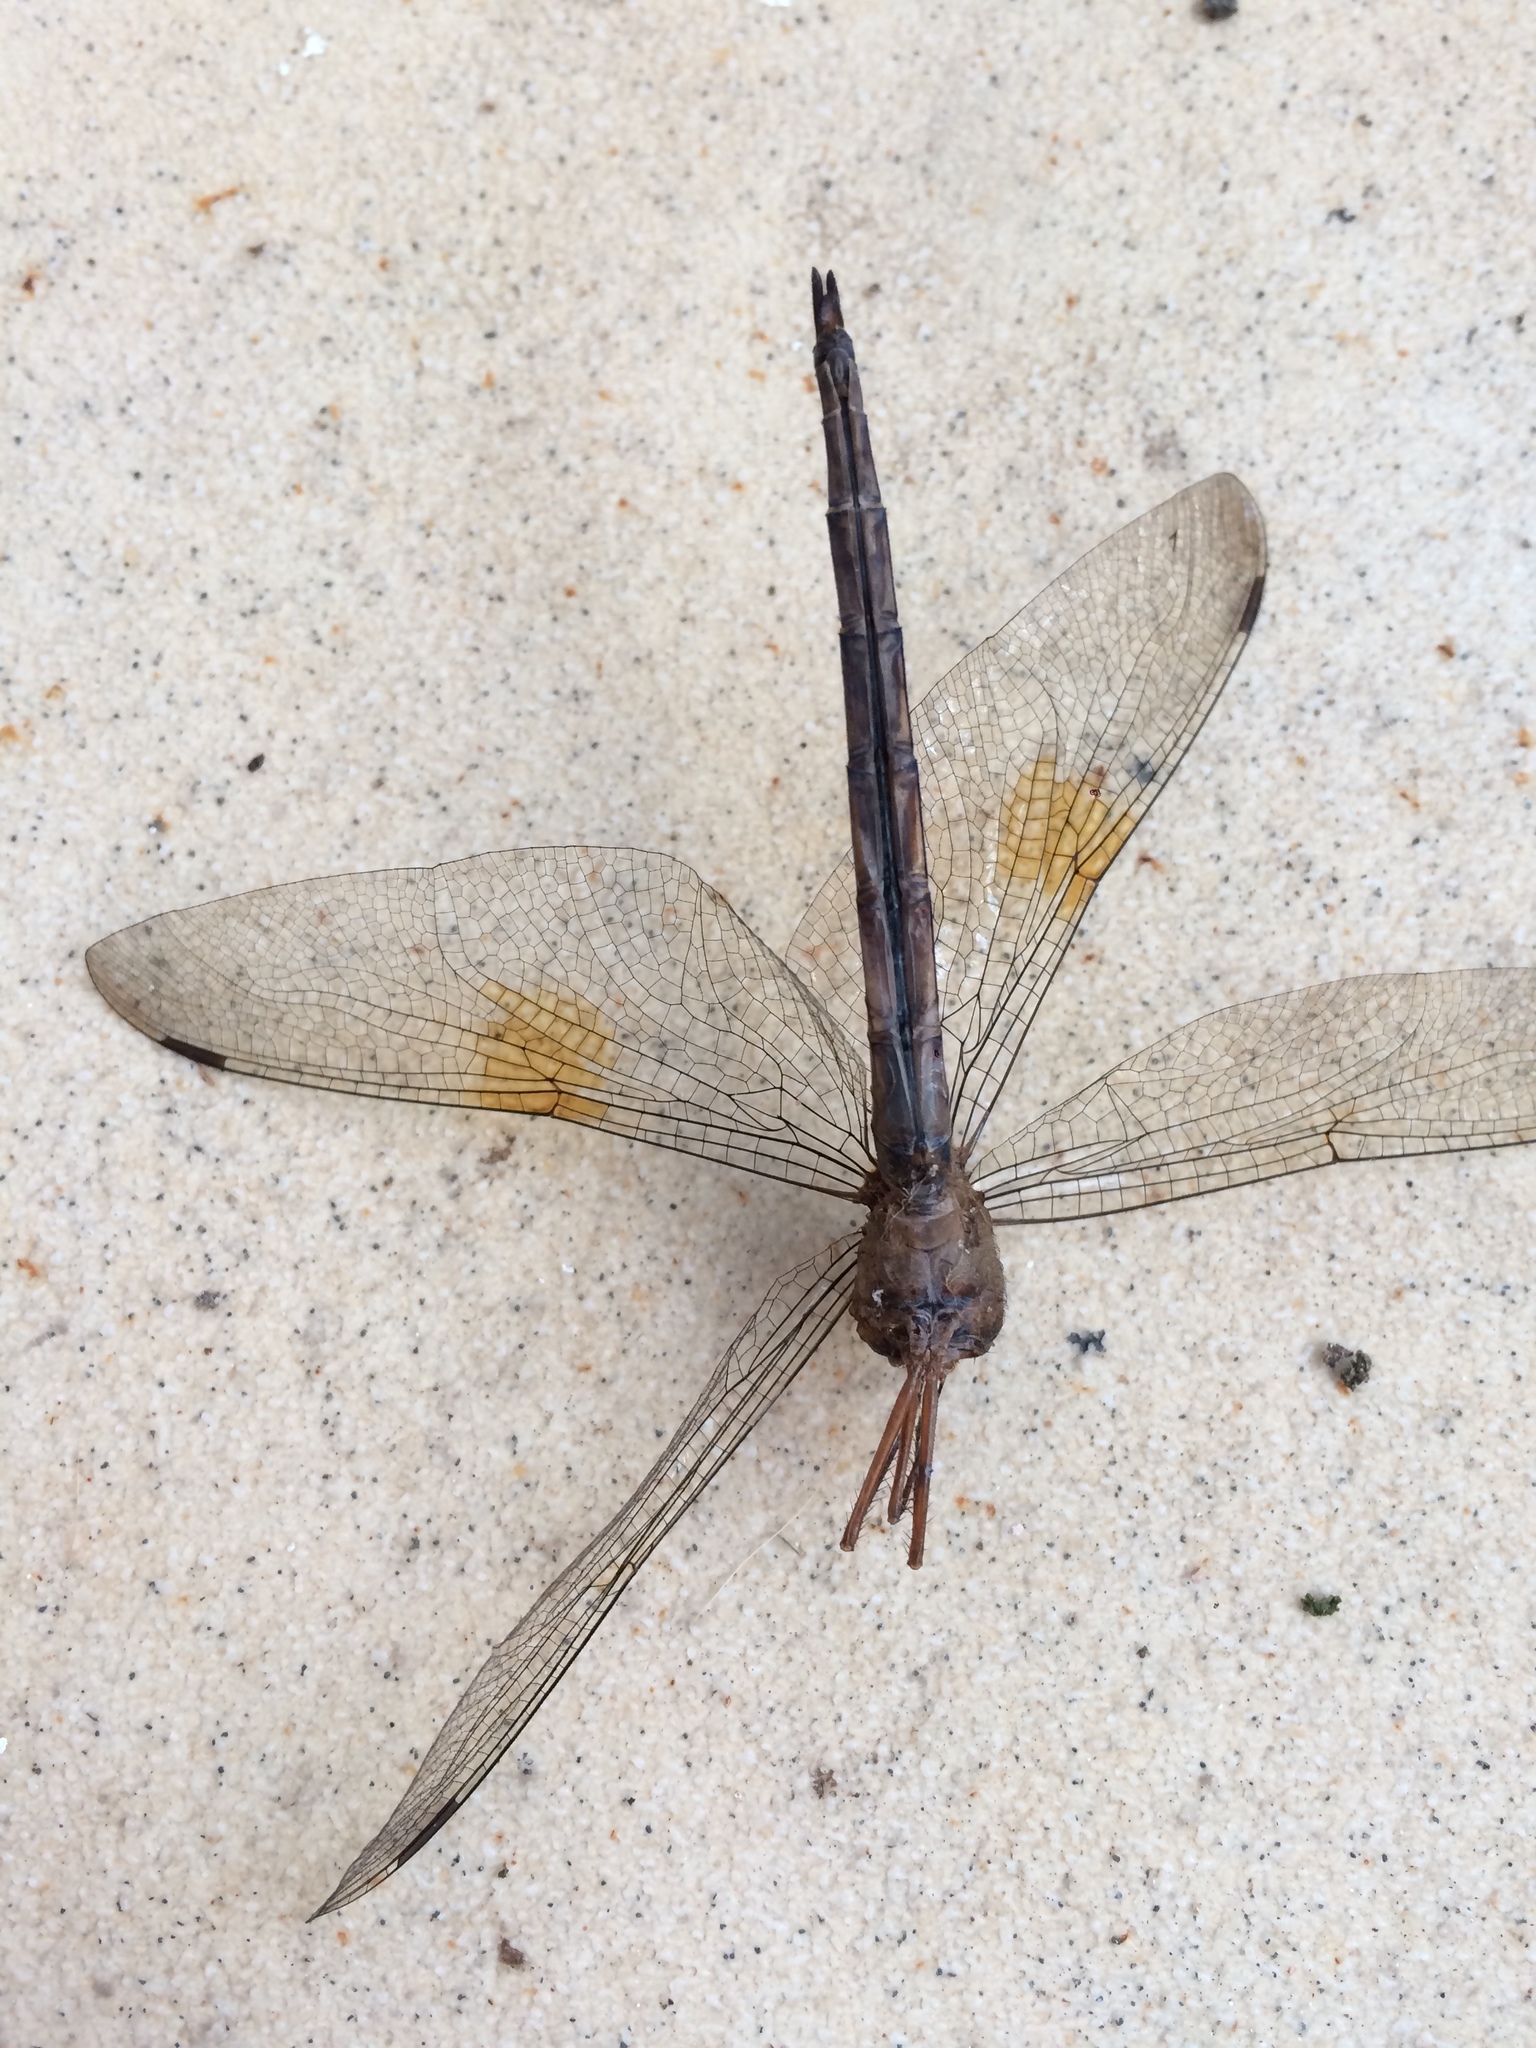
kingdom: Animalia
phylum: Arthropoda
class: Insecta
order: Odonata
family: Libellulidae
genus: Tholymis
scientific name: Tholymis citrina
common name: Evening skimmer
